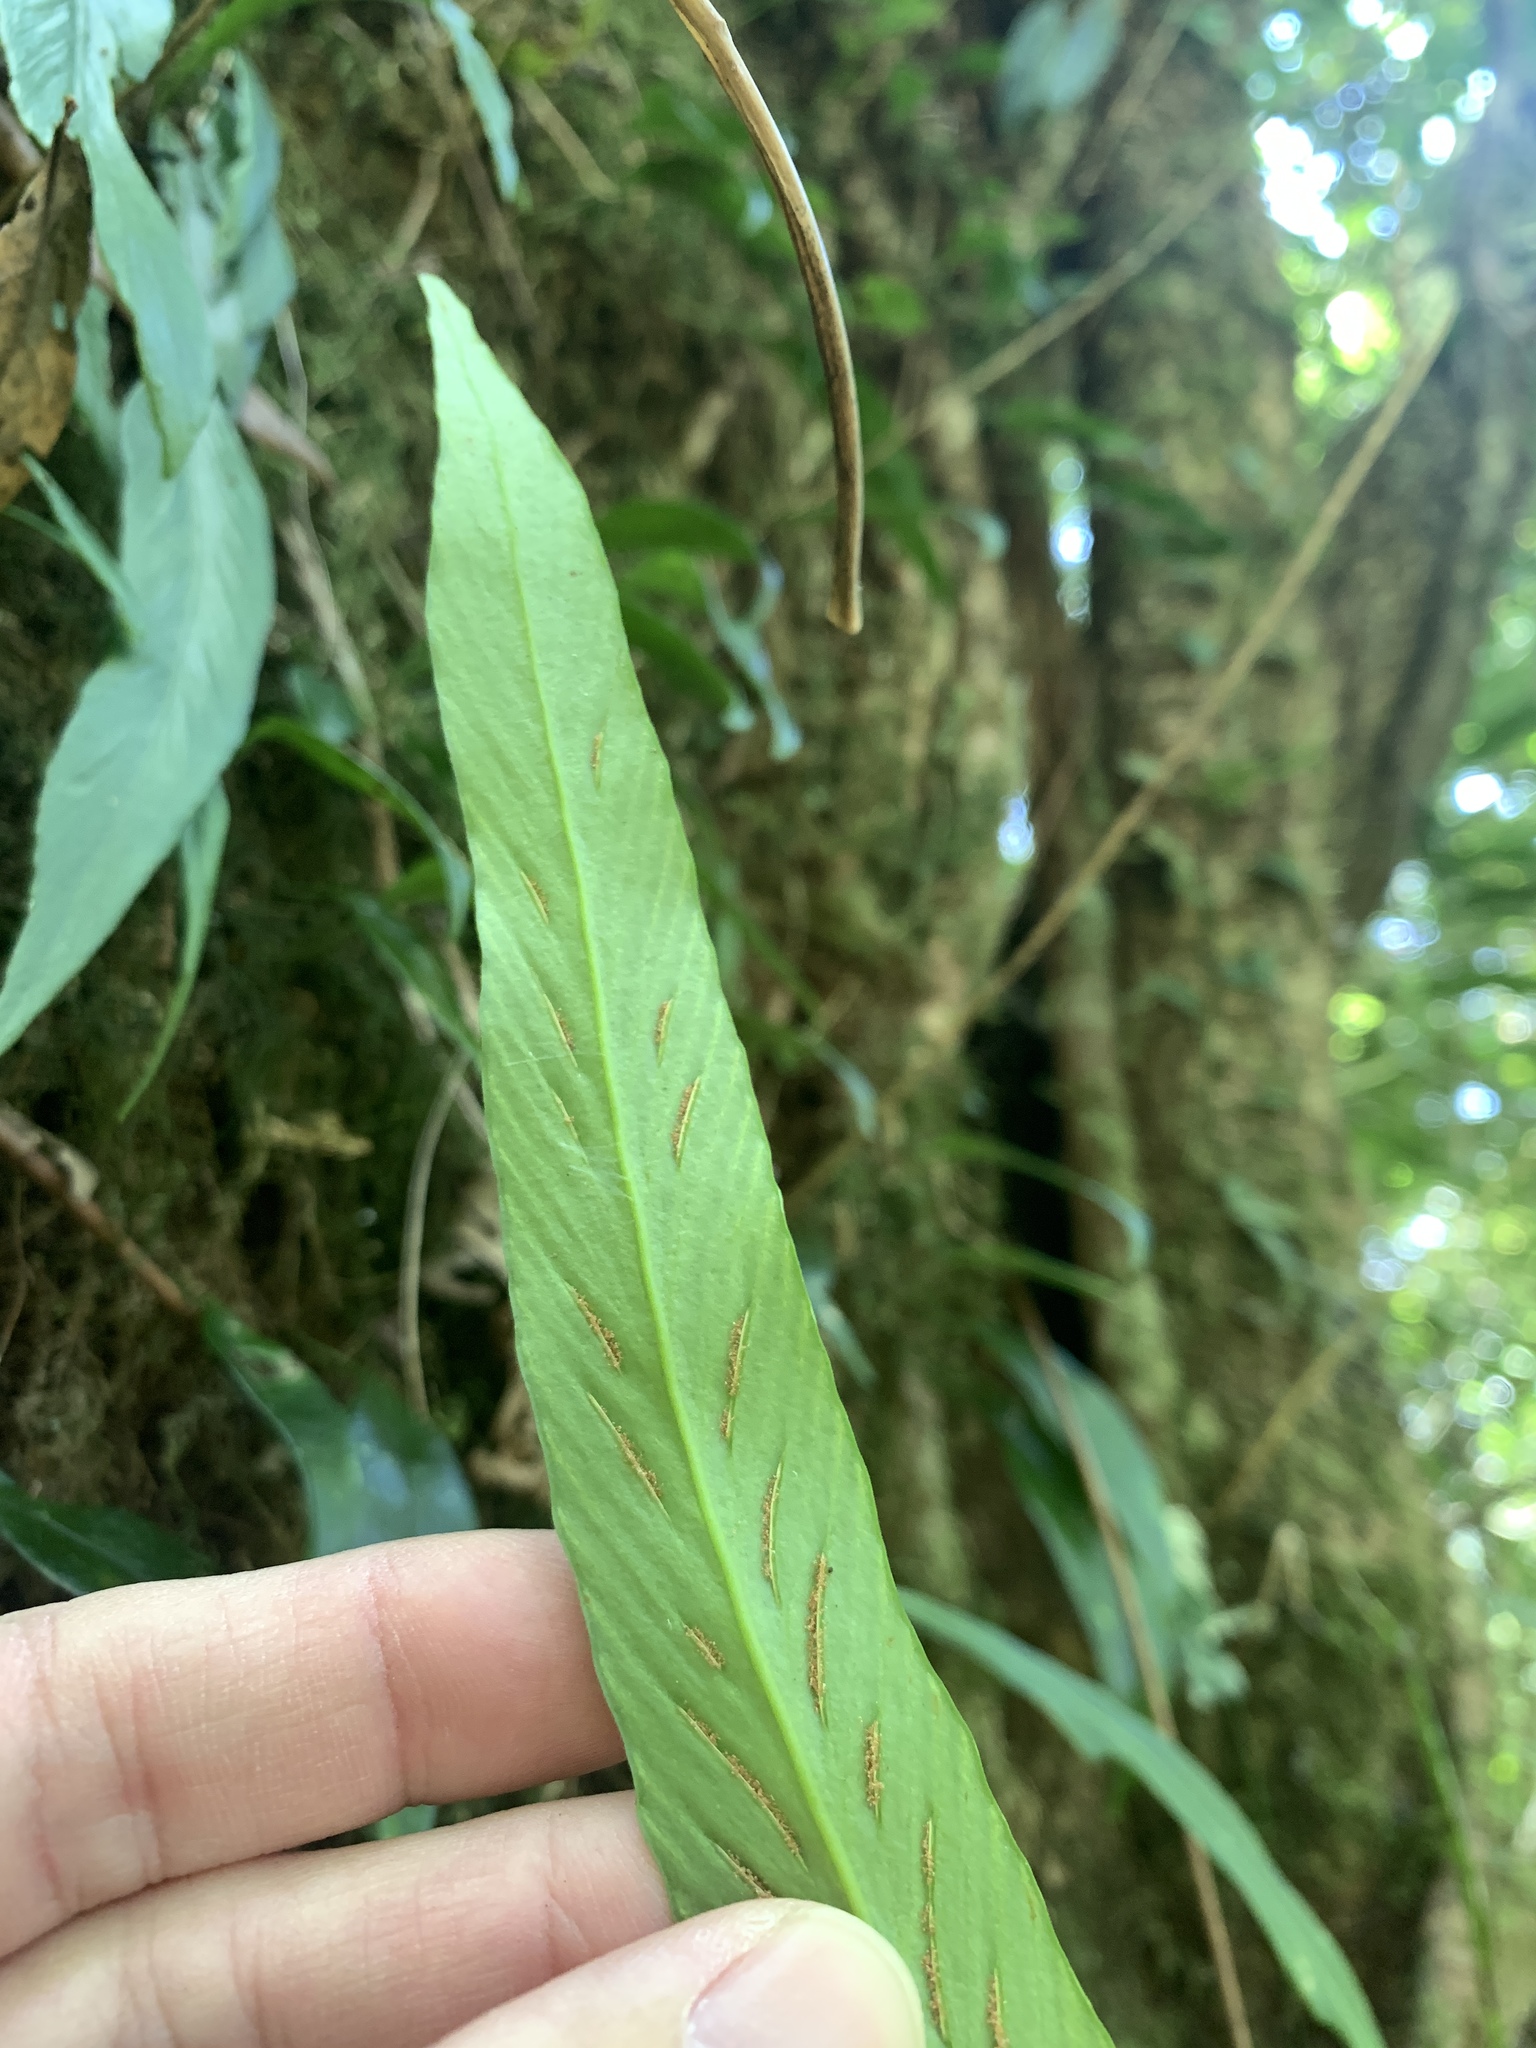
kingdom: Plantae
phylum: Tracheophyta
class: Polypodiopsida
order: Polypodiales
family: Aspleniaceae
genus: Asplenium
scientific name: Asplenium ensiforme
